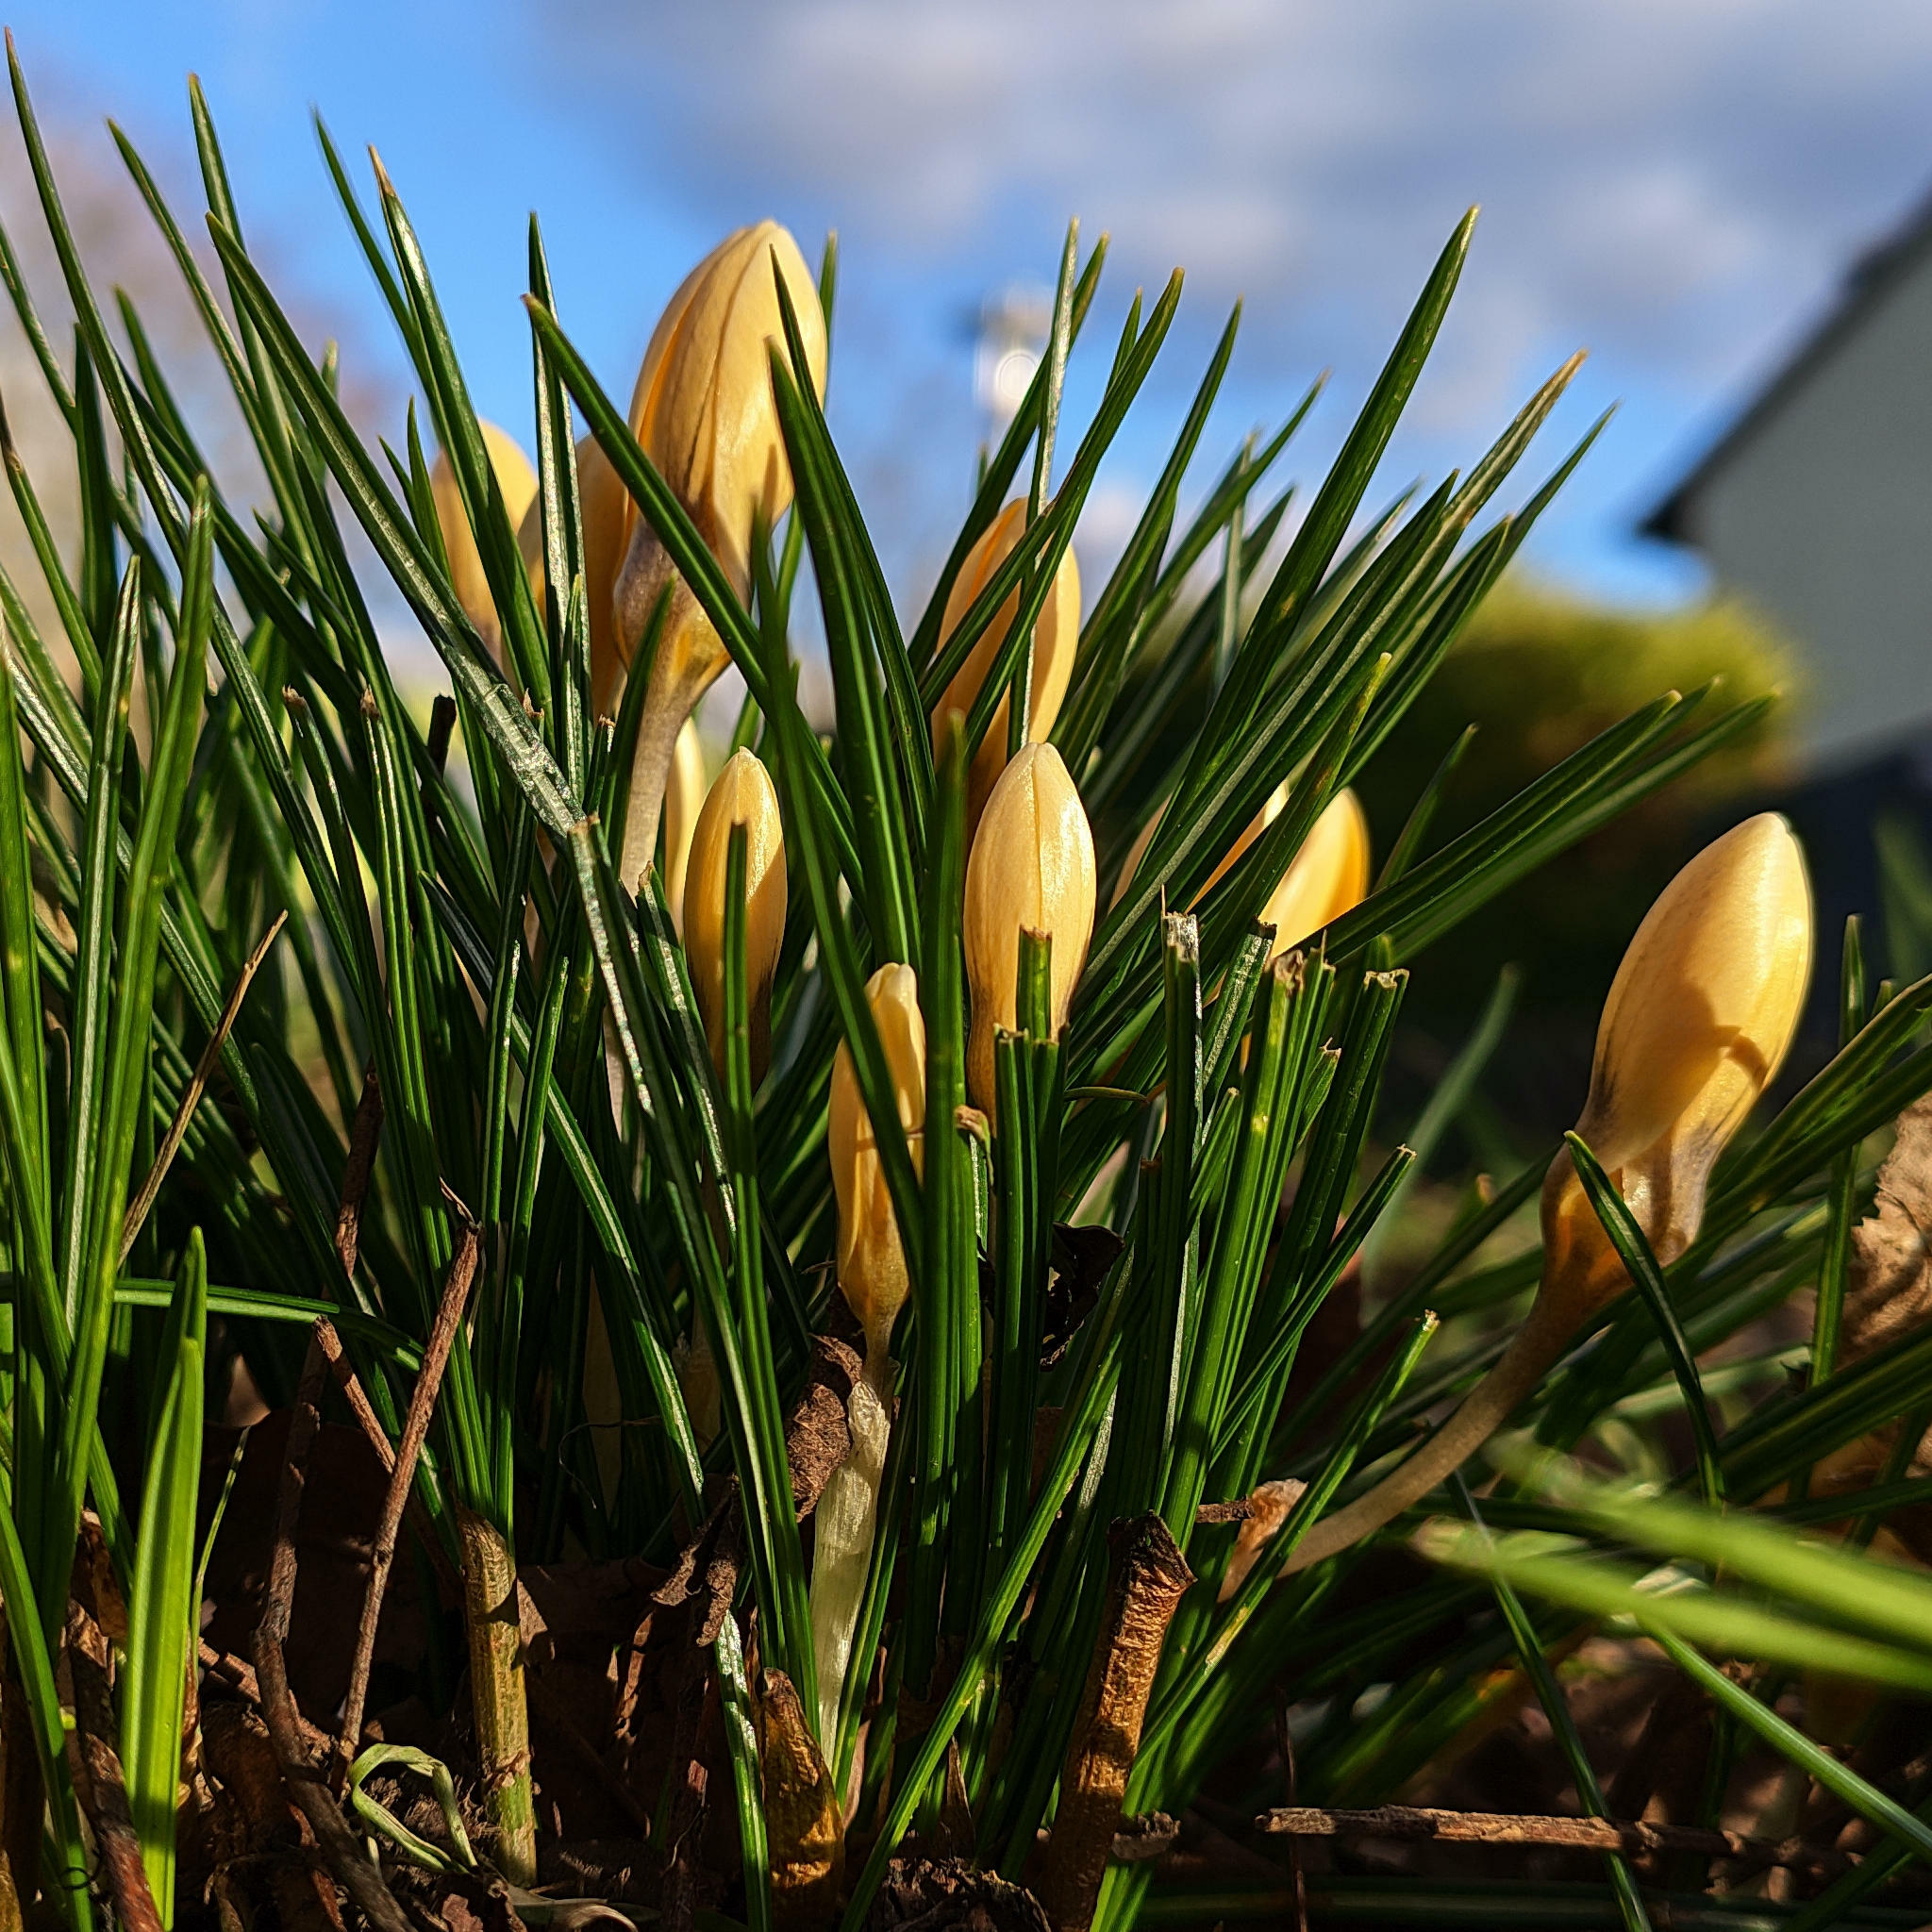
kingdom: Plantae
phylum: Tracheophyta
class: Liliopsida
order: Asparagales
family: Iridaceae
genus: Crocus
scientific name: Crocus chrysanthus
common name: Golden crocus
